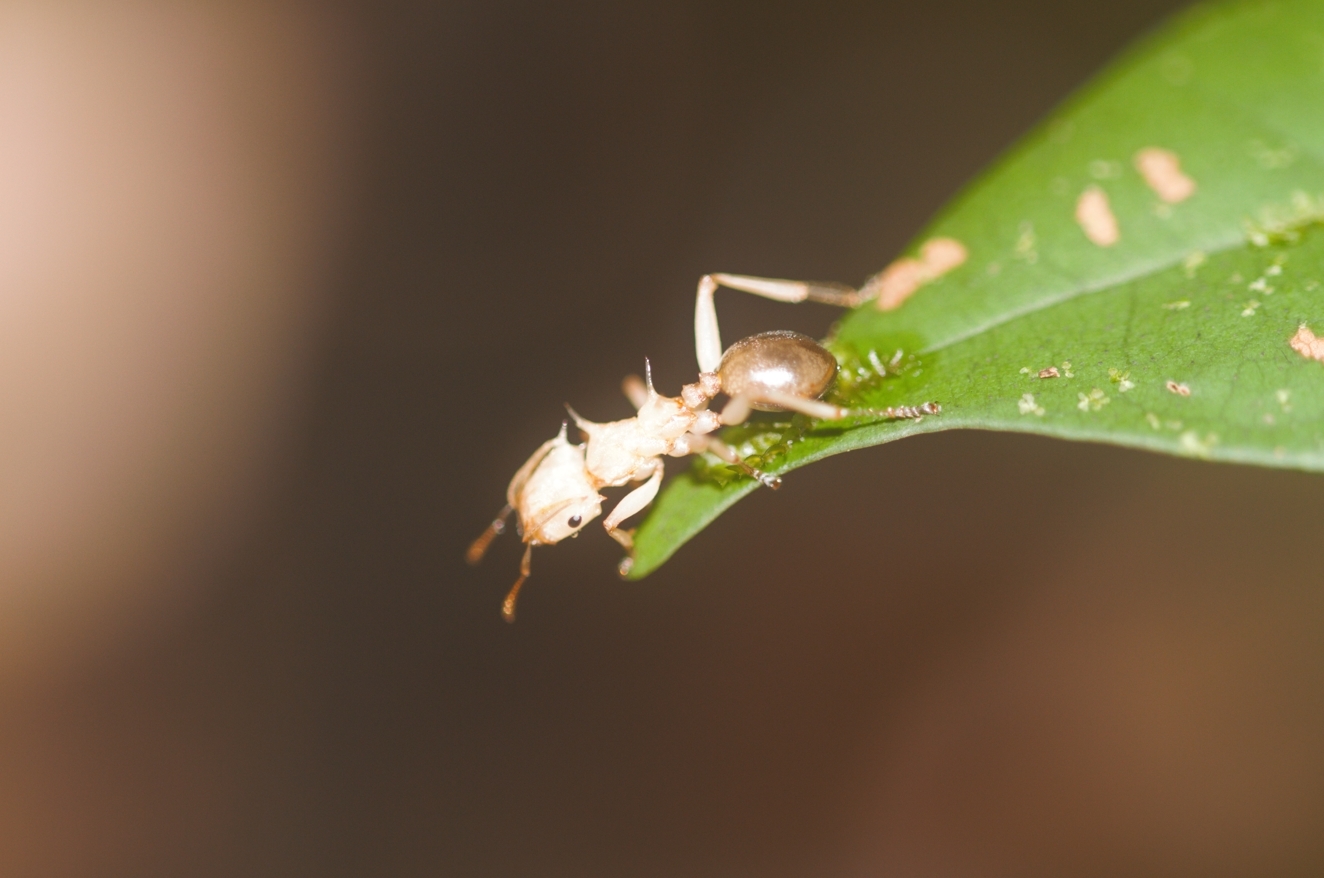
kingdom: Animalia
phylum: Arthropoda
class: Insecta
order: Hymenoptera
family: Formicidae
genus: Cephalotes
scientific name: Cephalotes
